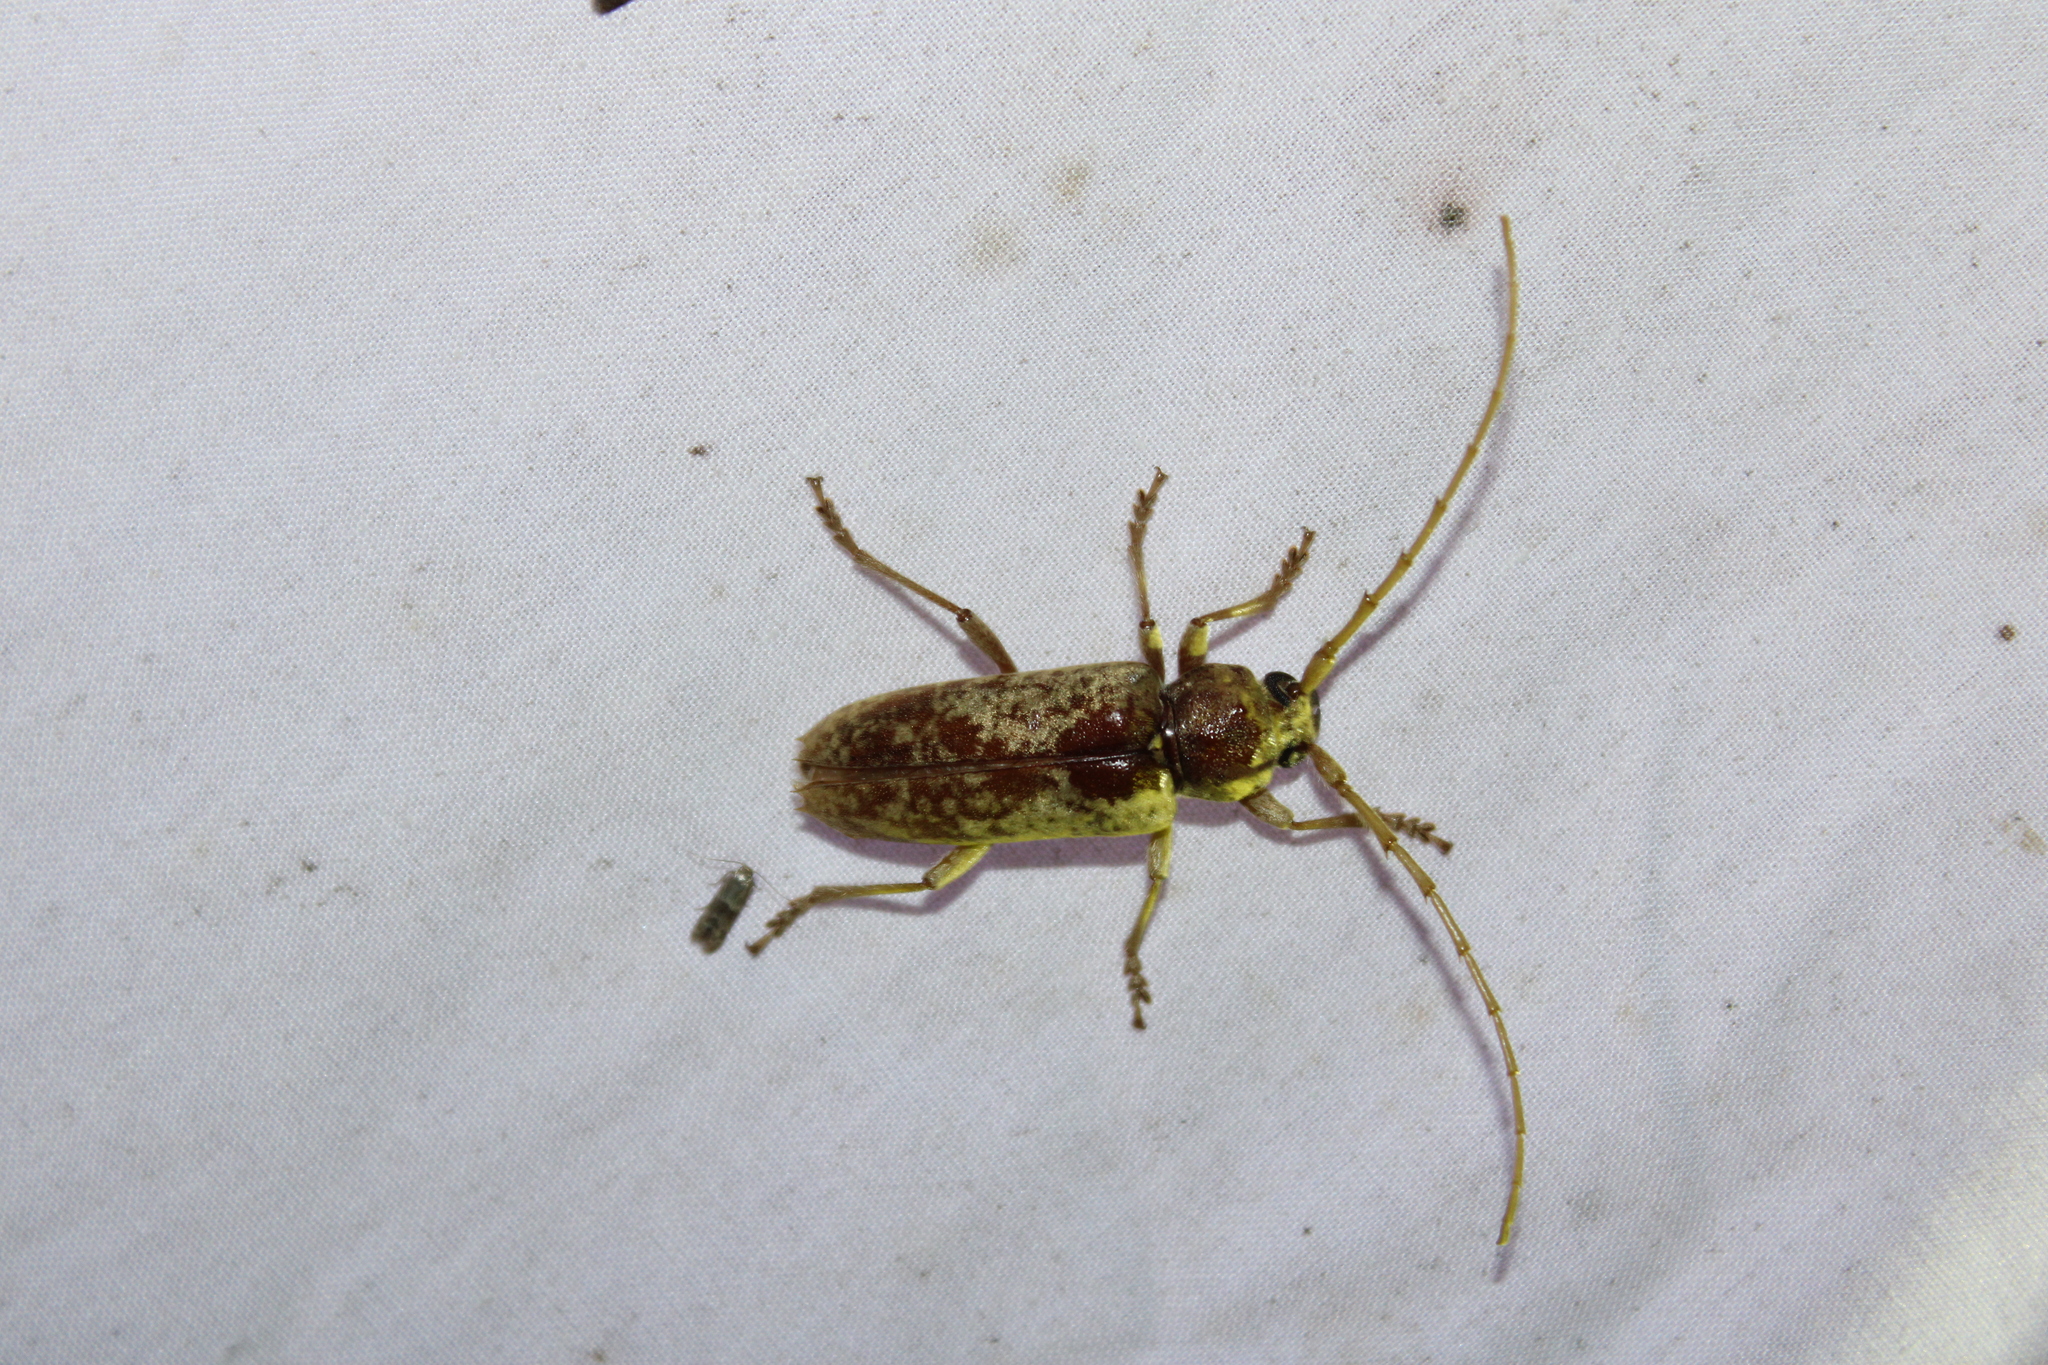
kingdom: Animalia
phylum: Arthropoda
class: Insecta
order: Coleoptera
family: Cerambycidae
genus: Enaphalodes
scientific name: Enaphalodes rufulus
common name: Red oak borer
